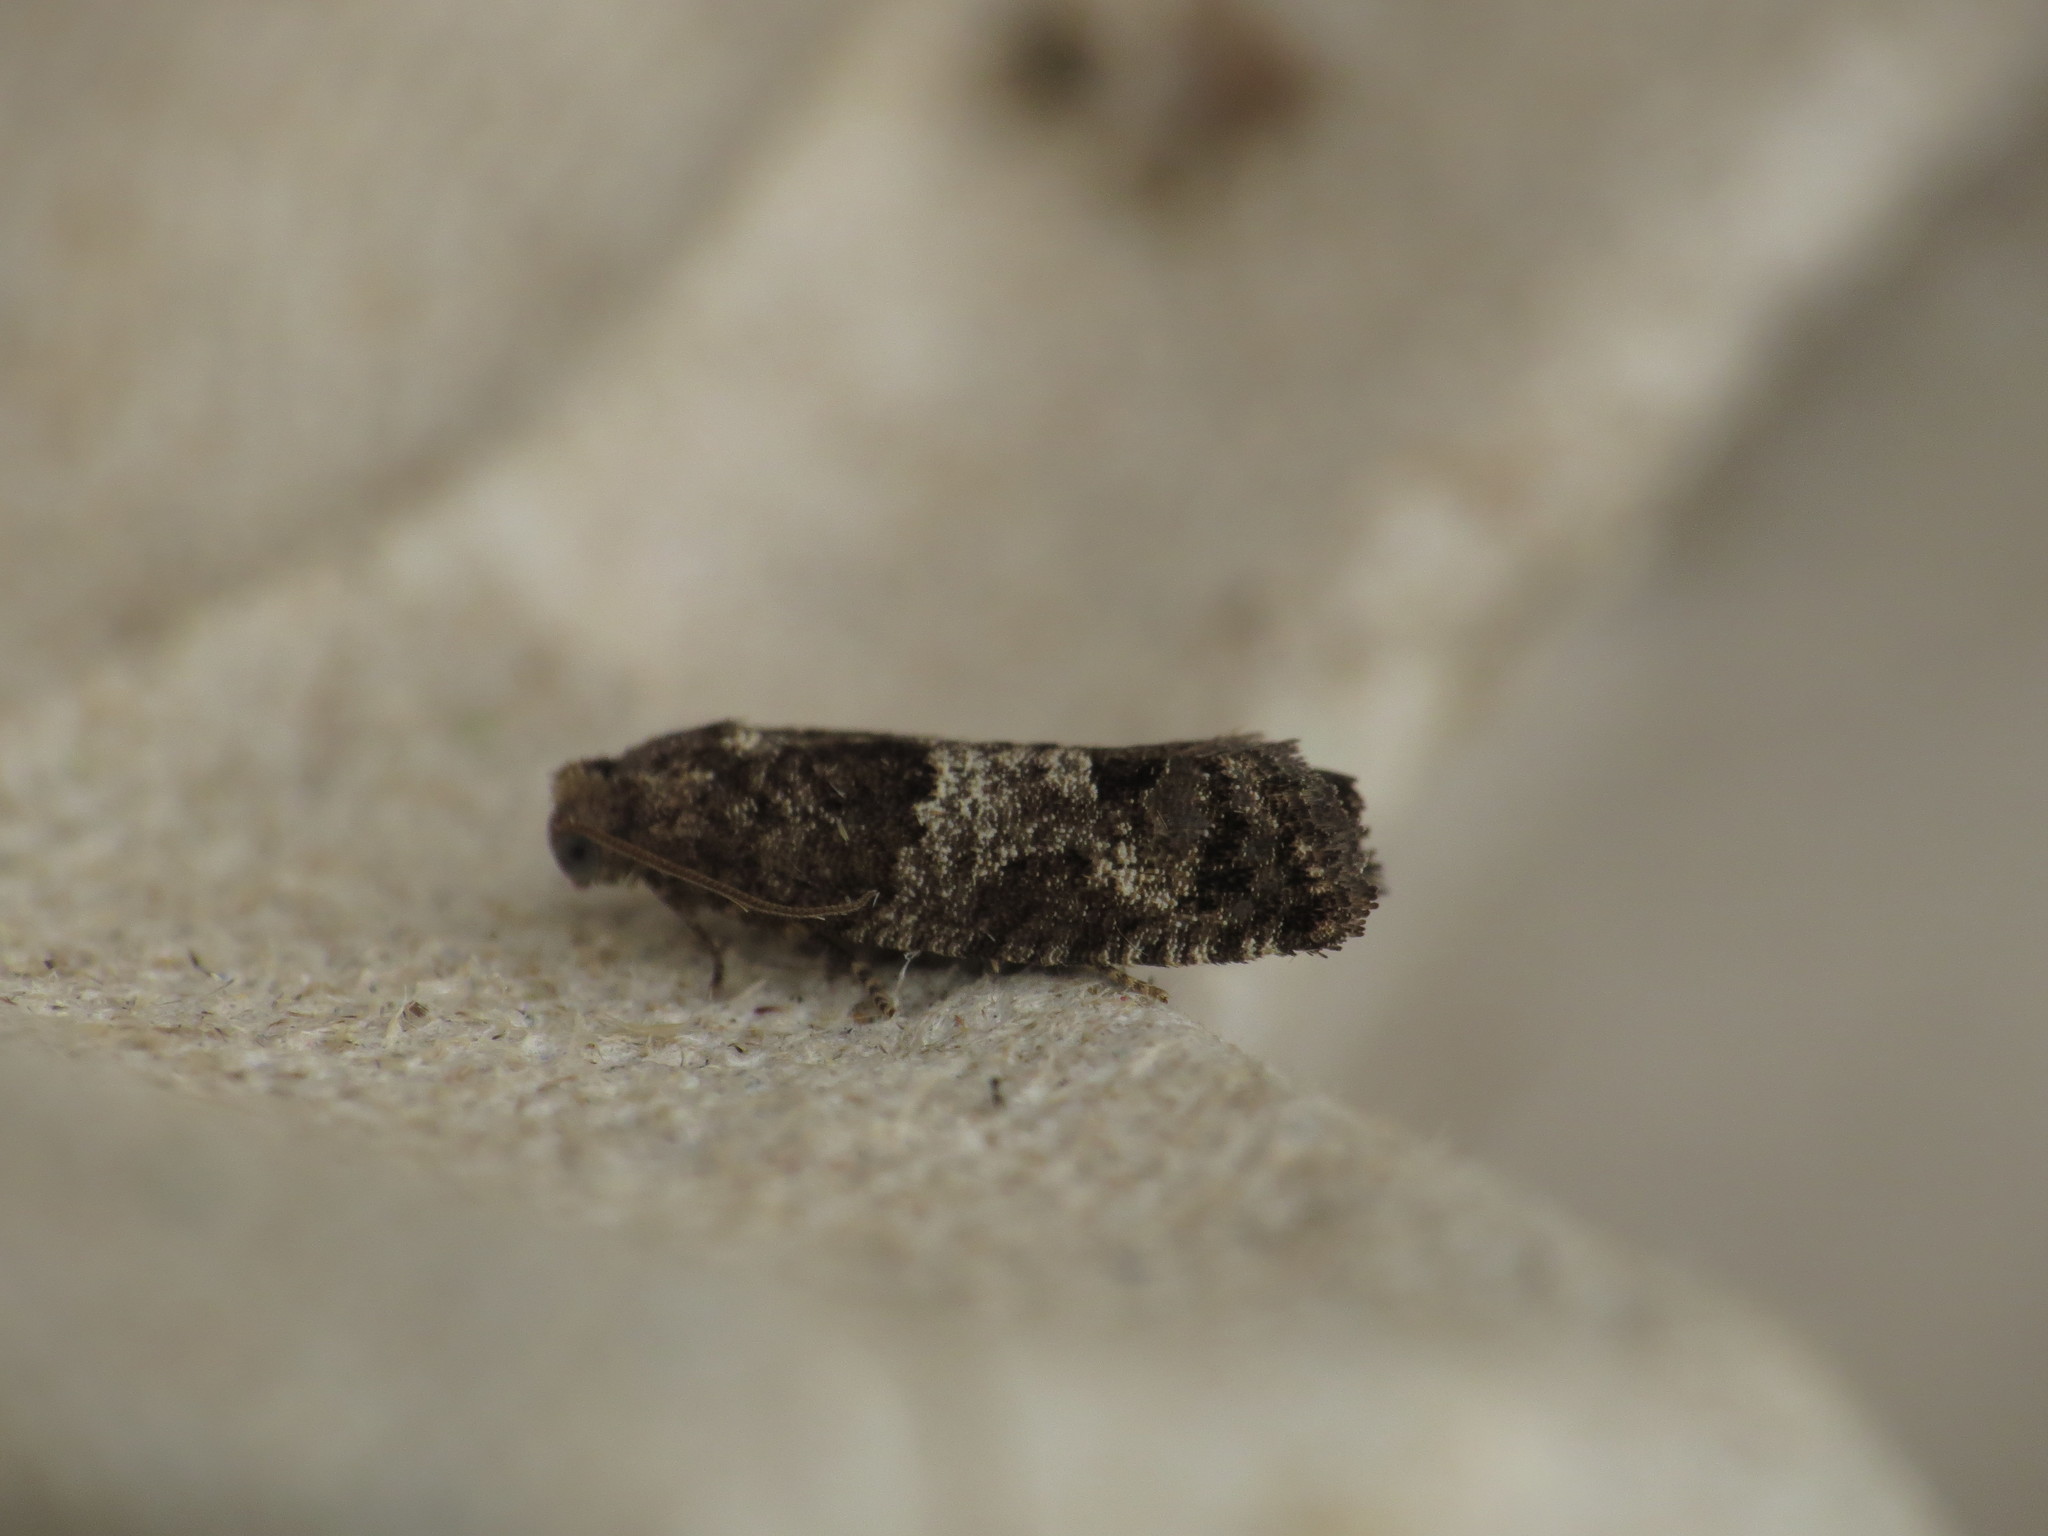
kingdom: Animalia
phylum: Arthropoda
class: Insecta
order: Lepidoptera
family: Tortricidae
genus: Spilonota
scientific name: Spilonota laricana
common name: Larch shoot tortricid moth
